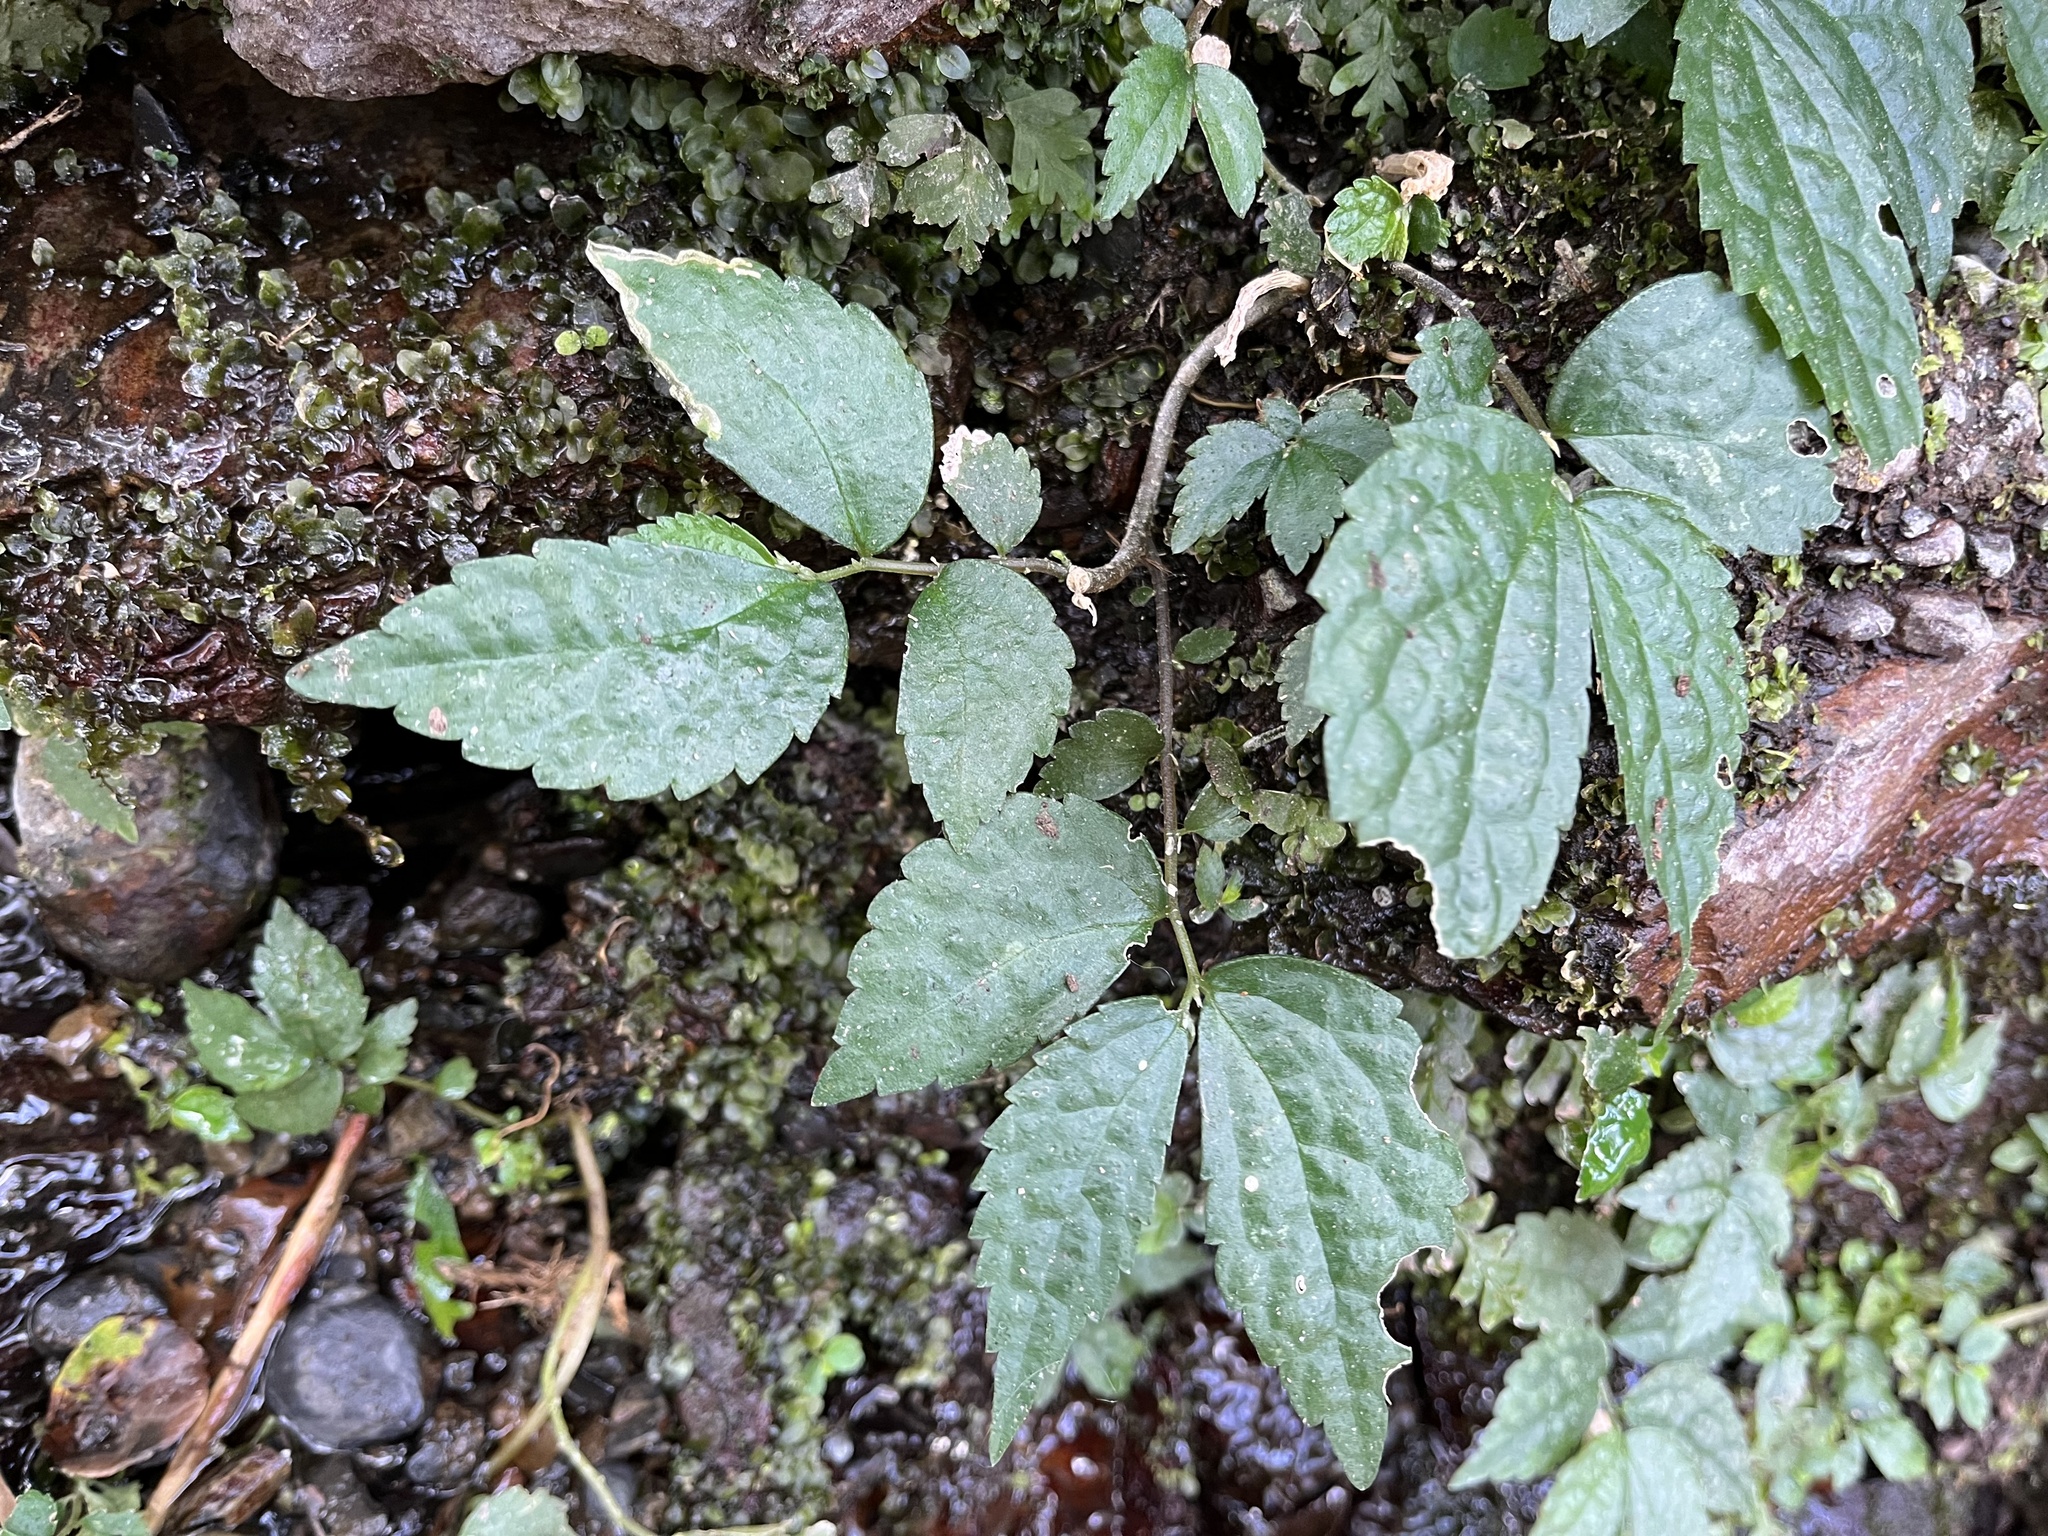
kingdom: Plantae
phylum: Tracheophyta
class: Magnoliopsida
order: Rosales
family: Urticaceae
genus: Elatostema
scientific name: Elatostema cyrtandrifolium
